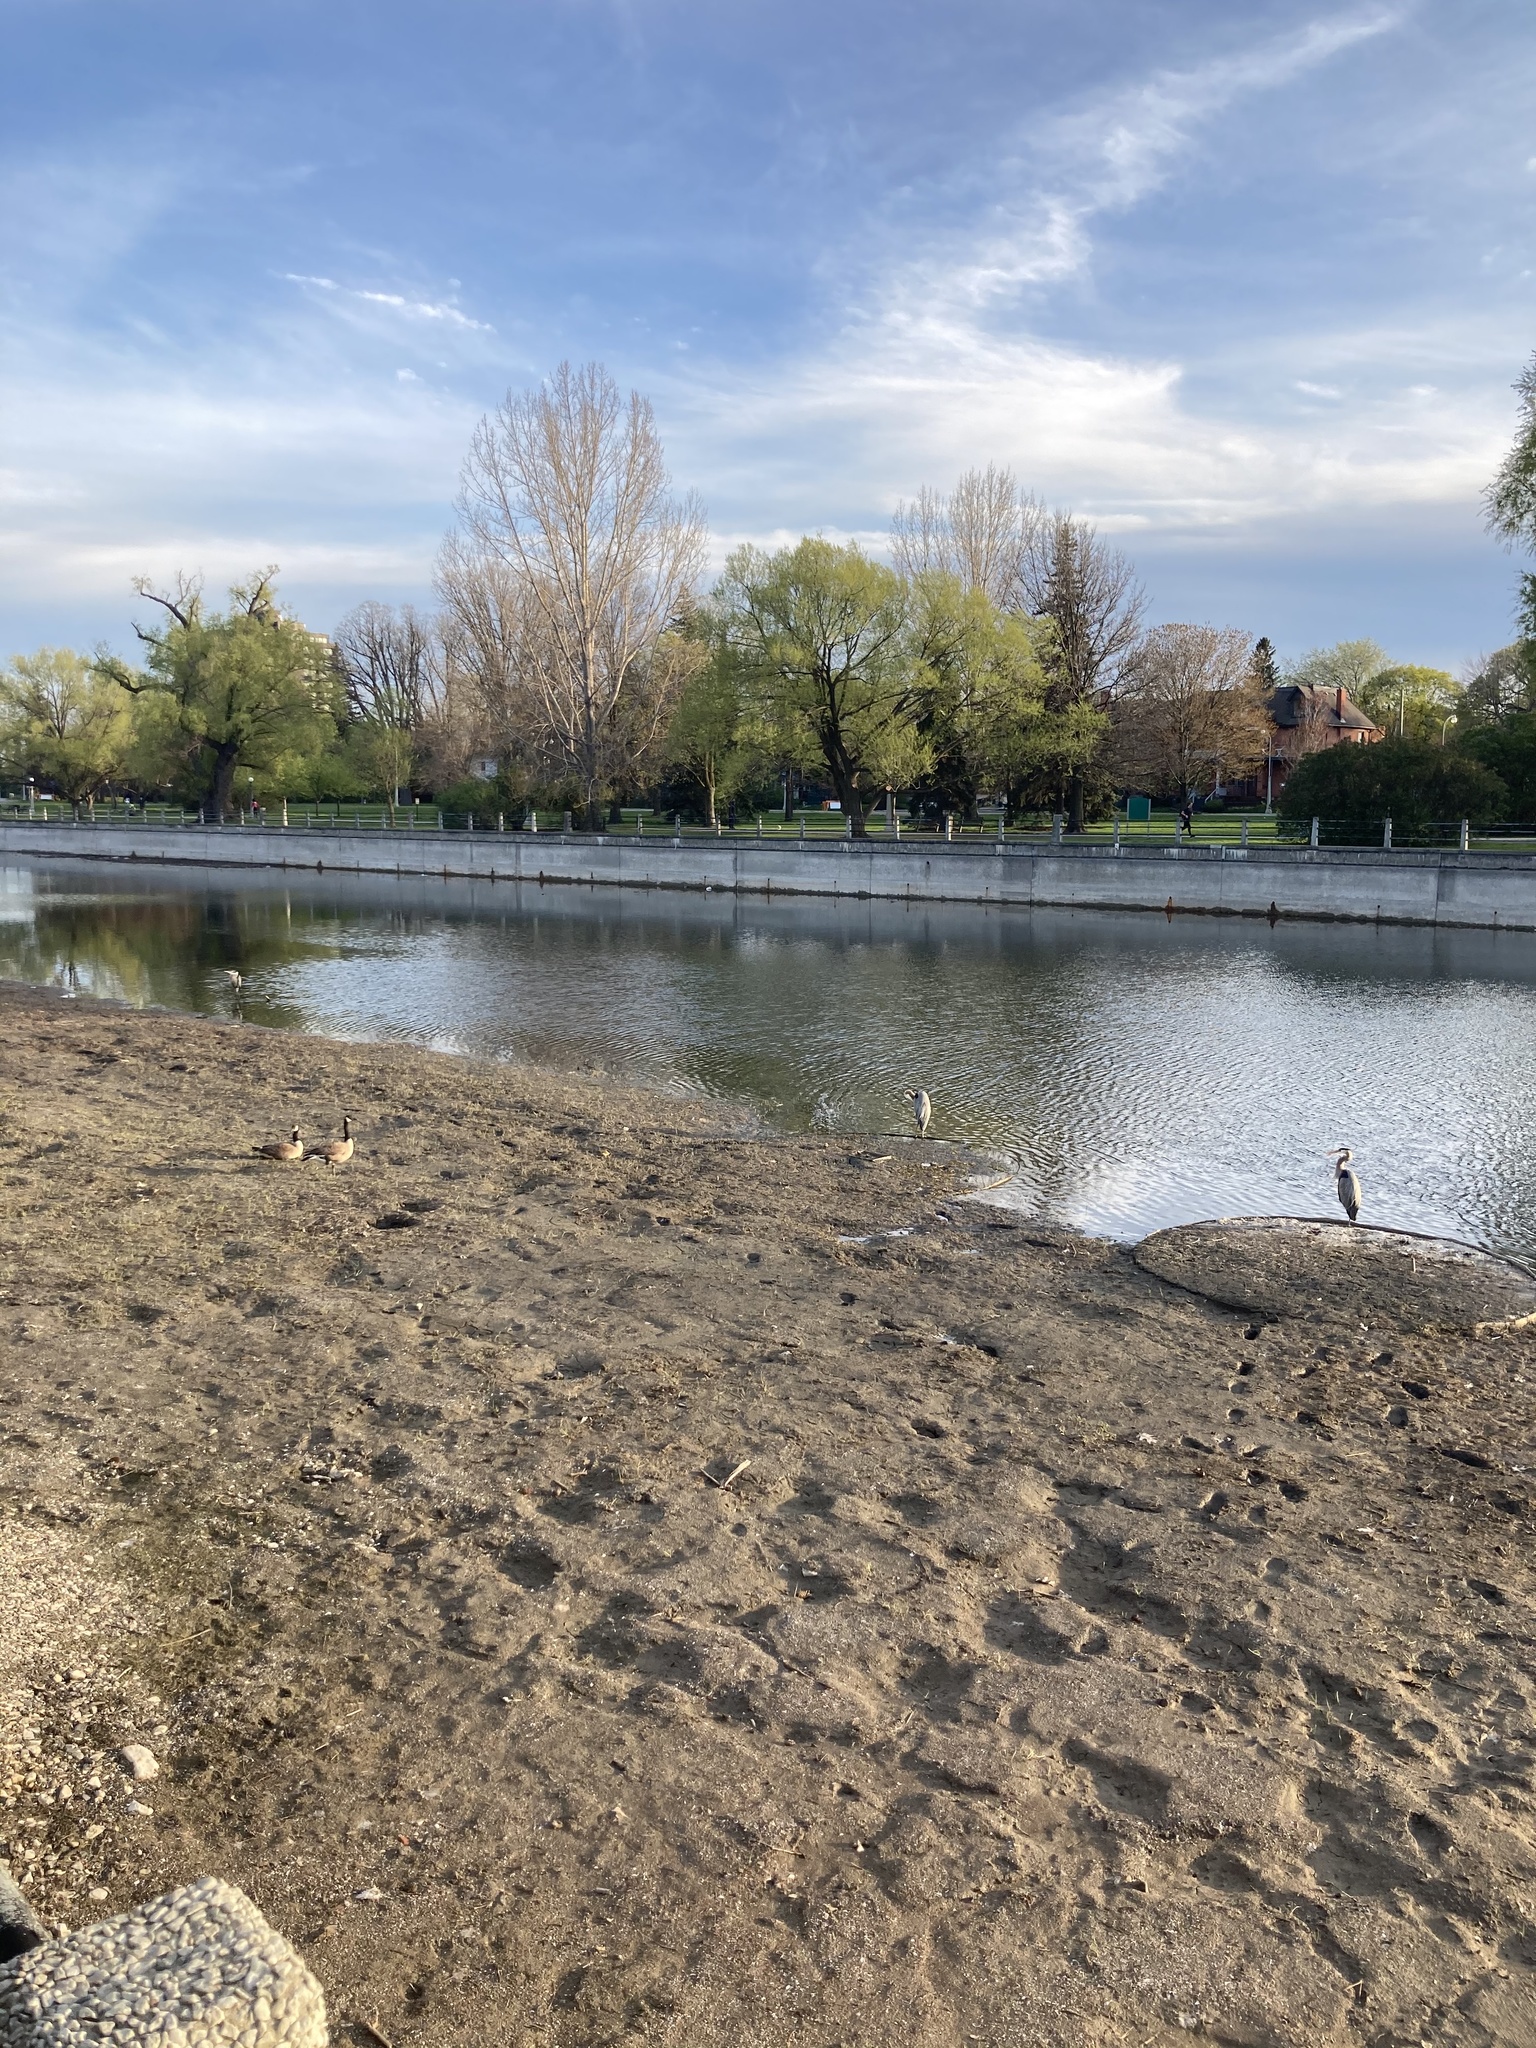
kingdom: Animalia
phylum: Chordata
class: Aves
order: Pelecaniformes
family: Ardeidae
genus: Ardea
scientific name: Ardea herodias
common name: Great blue heron
